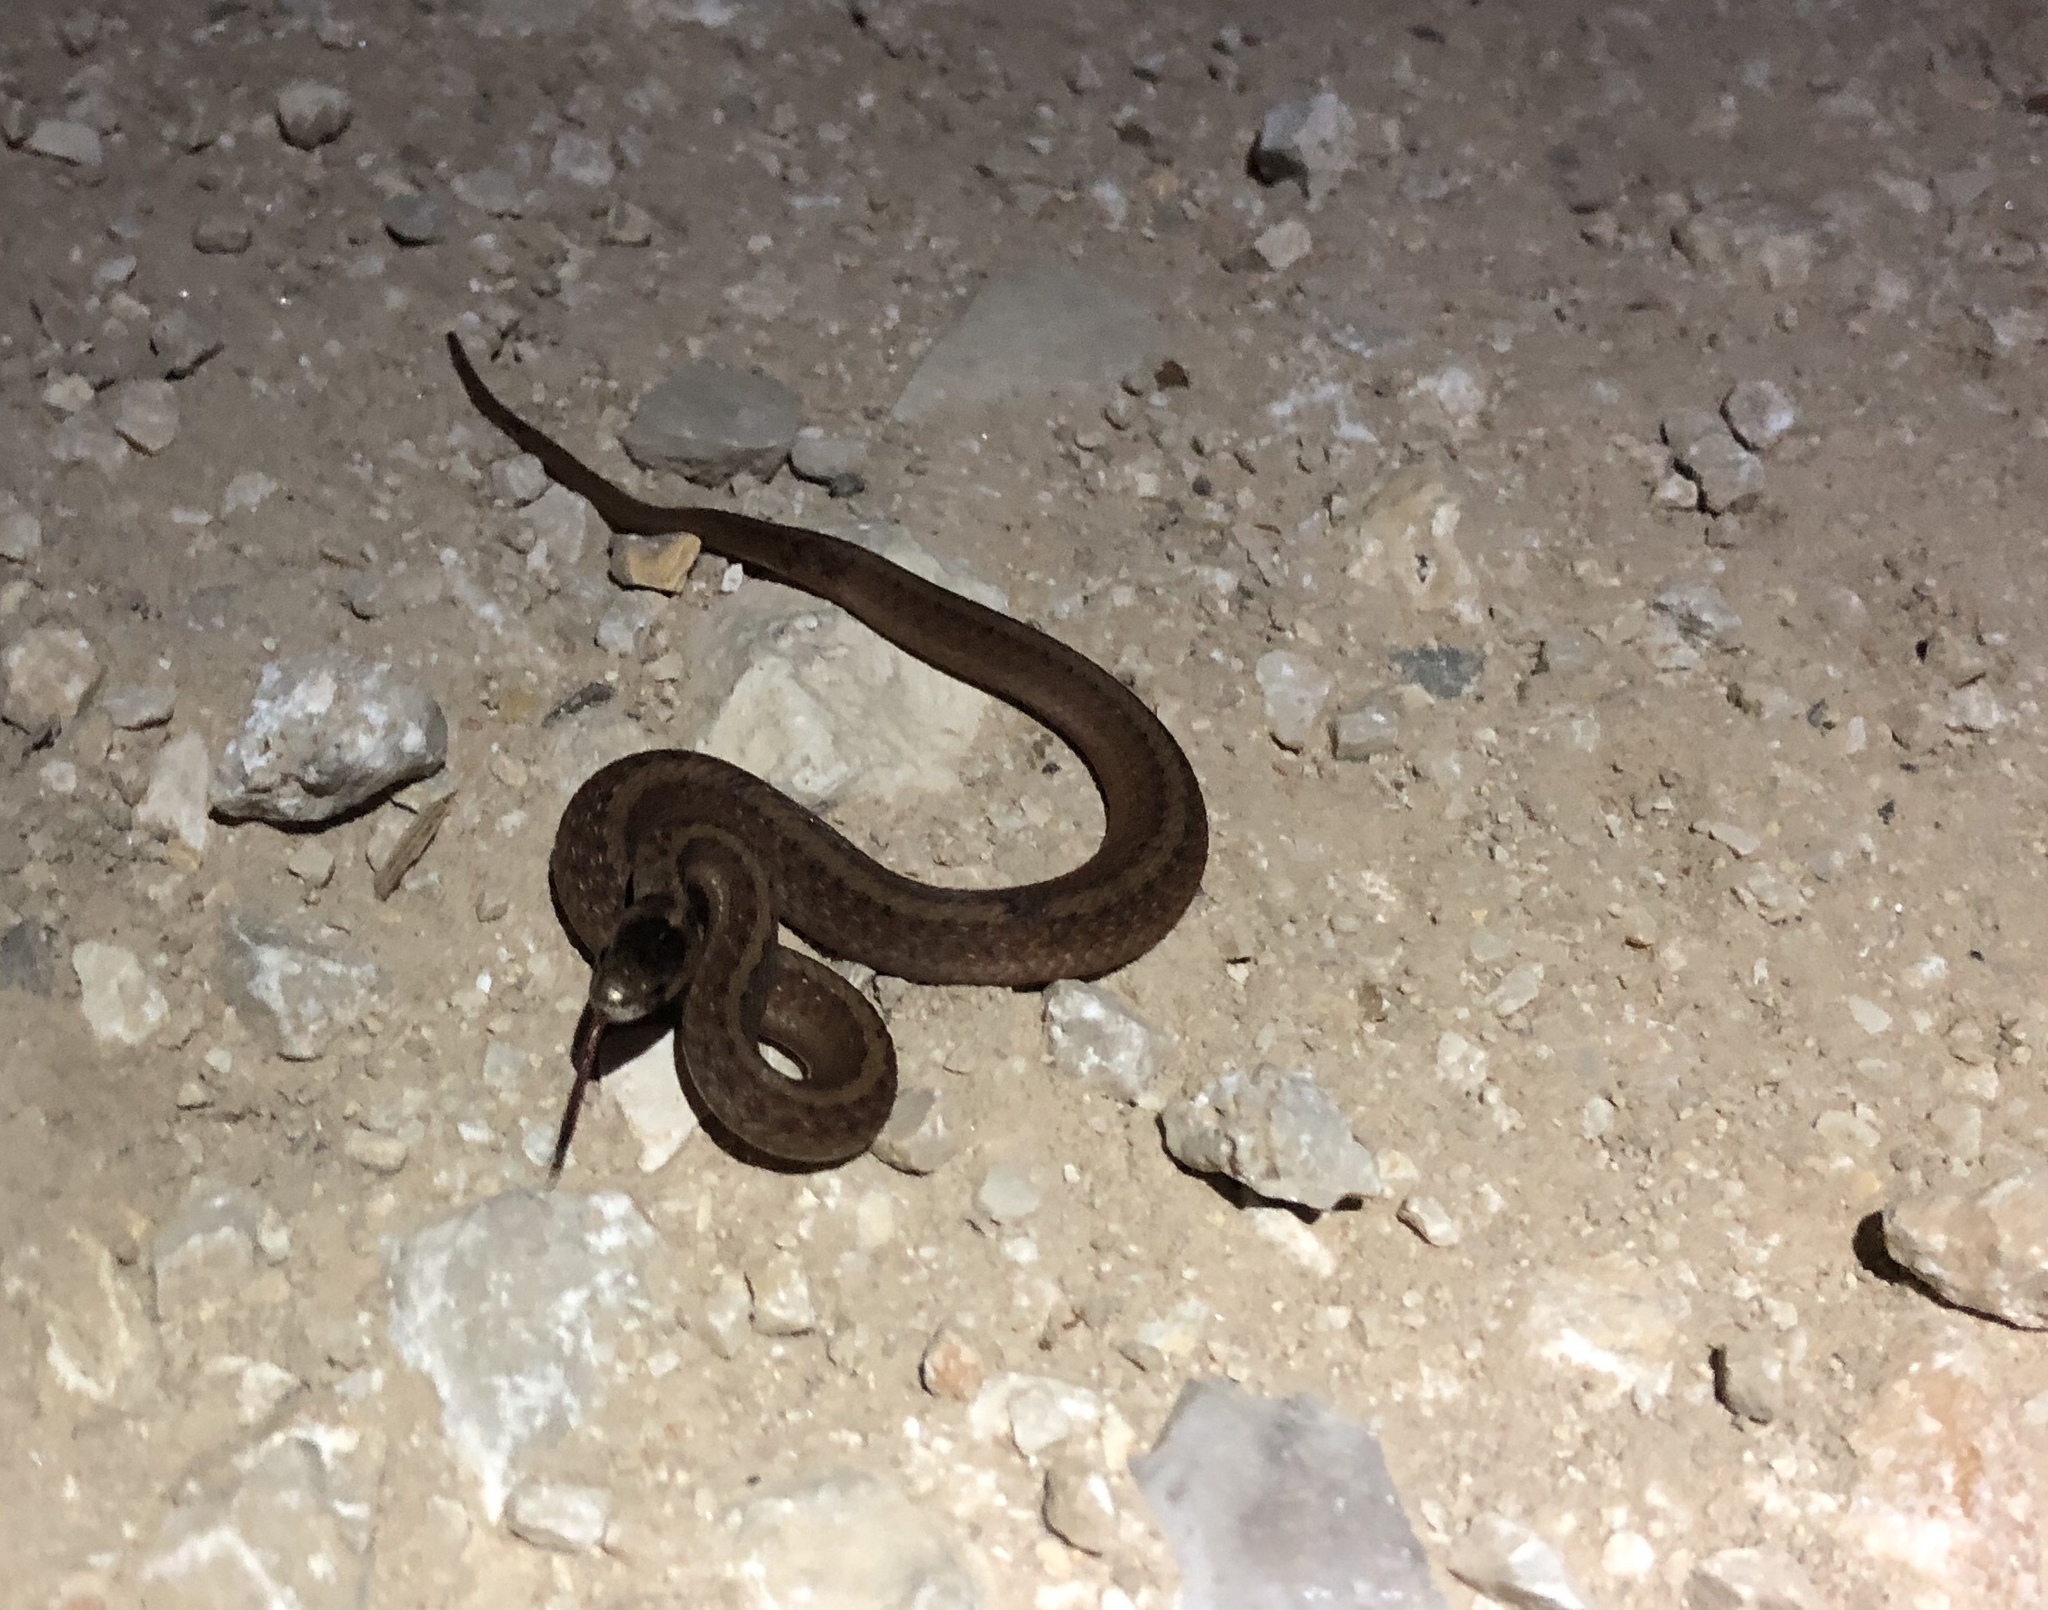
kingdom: Animalia
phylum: Chordata
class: Squamata
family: Colubridae
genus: Storeria
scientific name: Storeria dekayi
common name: (dekay’s) brown snake
